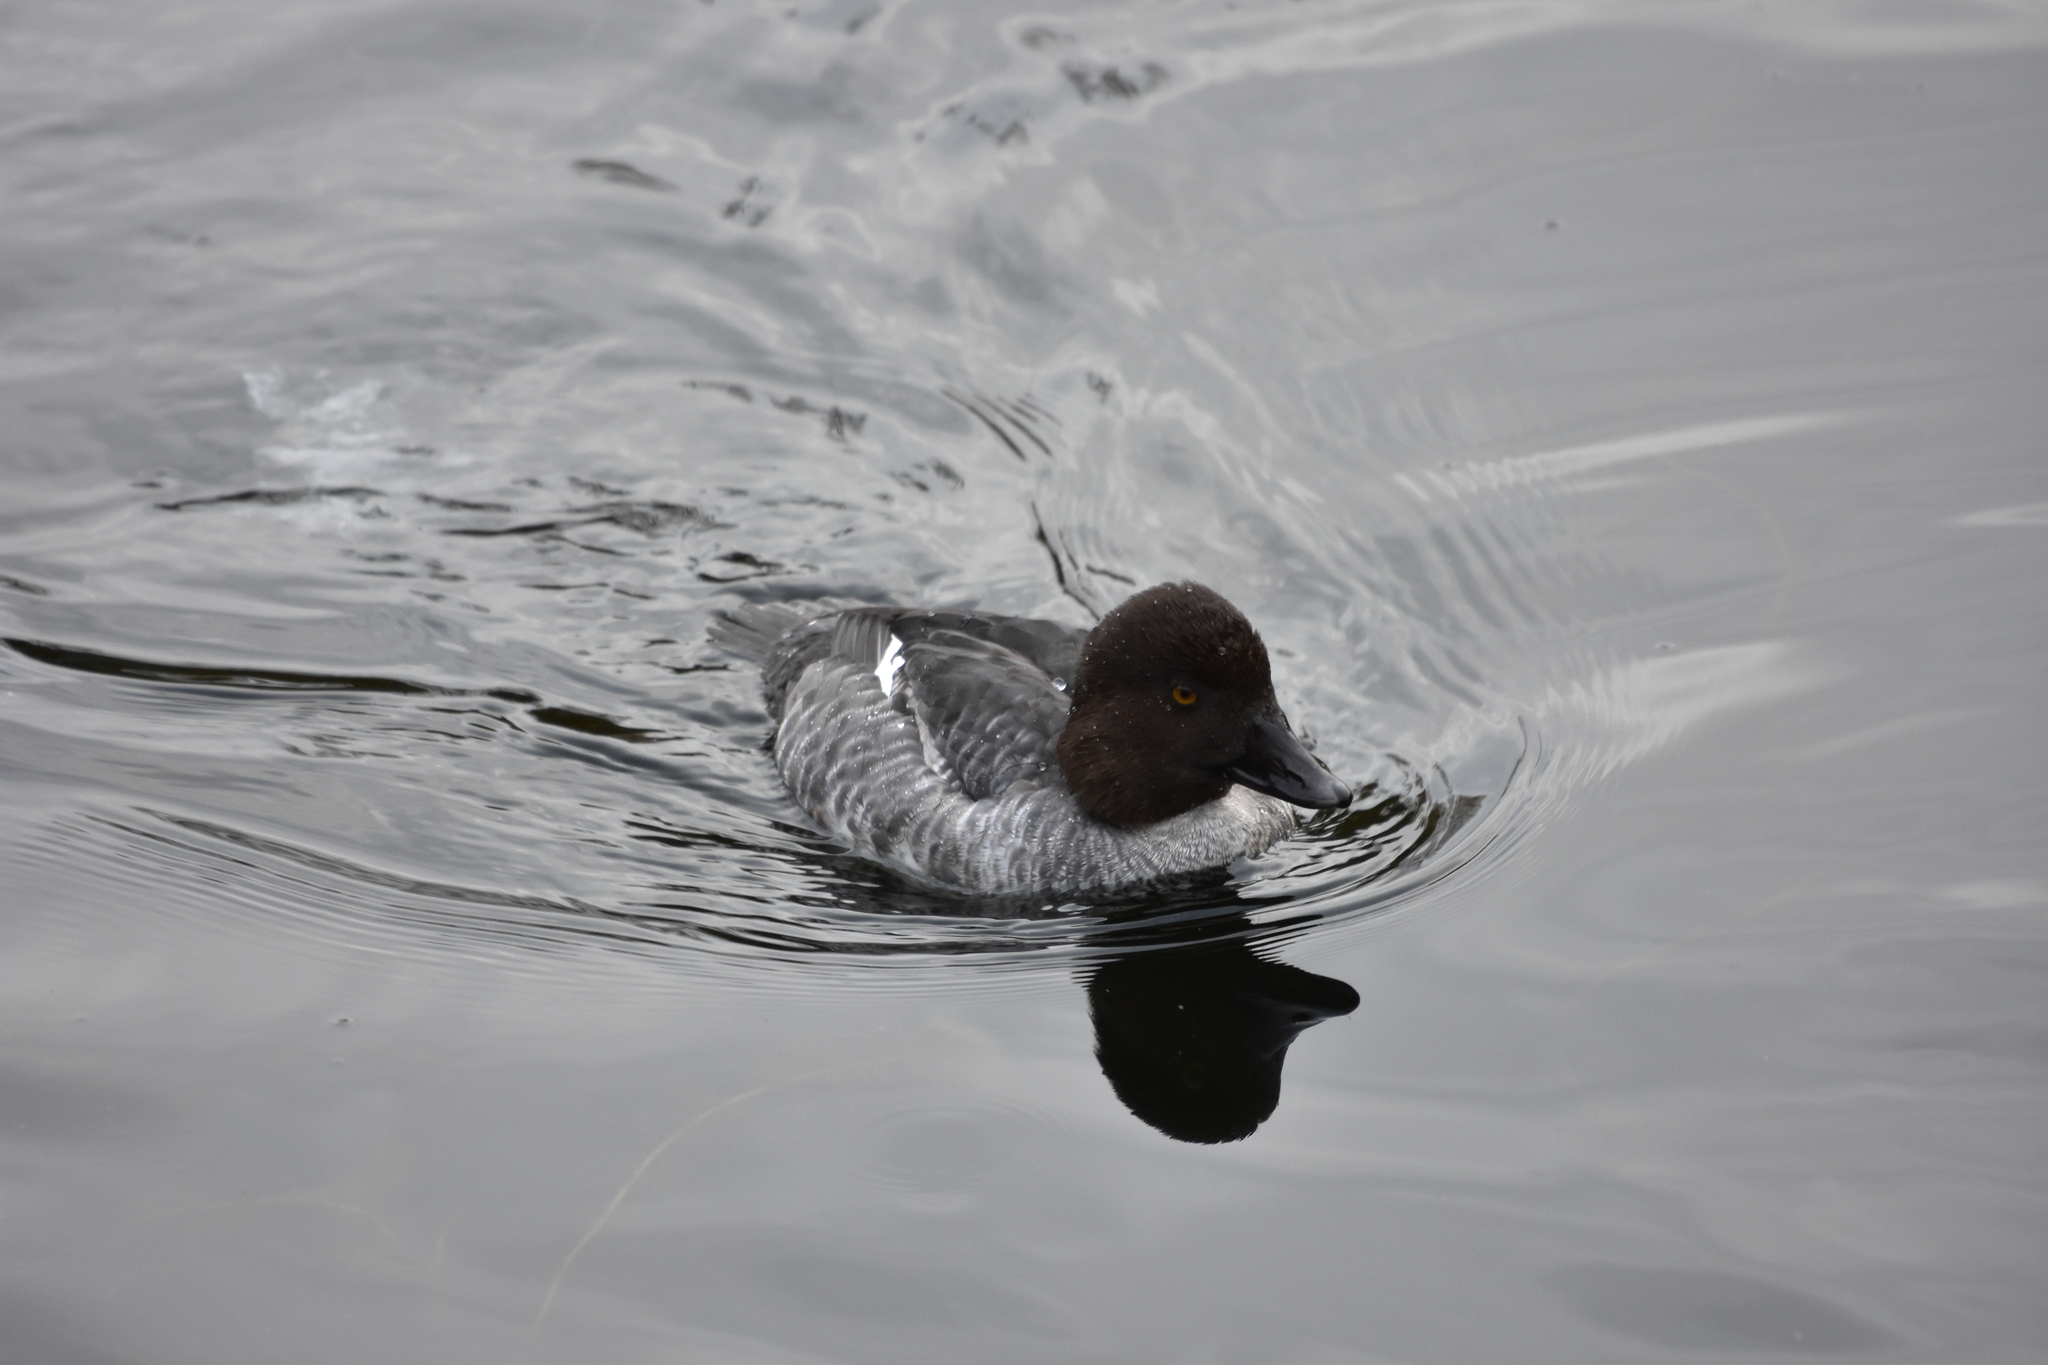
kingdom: Animalia
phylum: Chordata
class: Aves
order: Anseriformes
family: Anatidae
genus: Bucephala
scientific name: Bucephala clangula
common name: Common goldeneye
